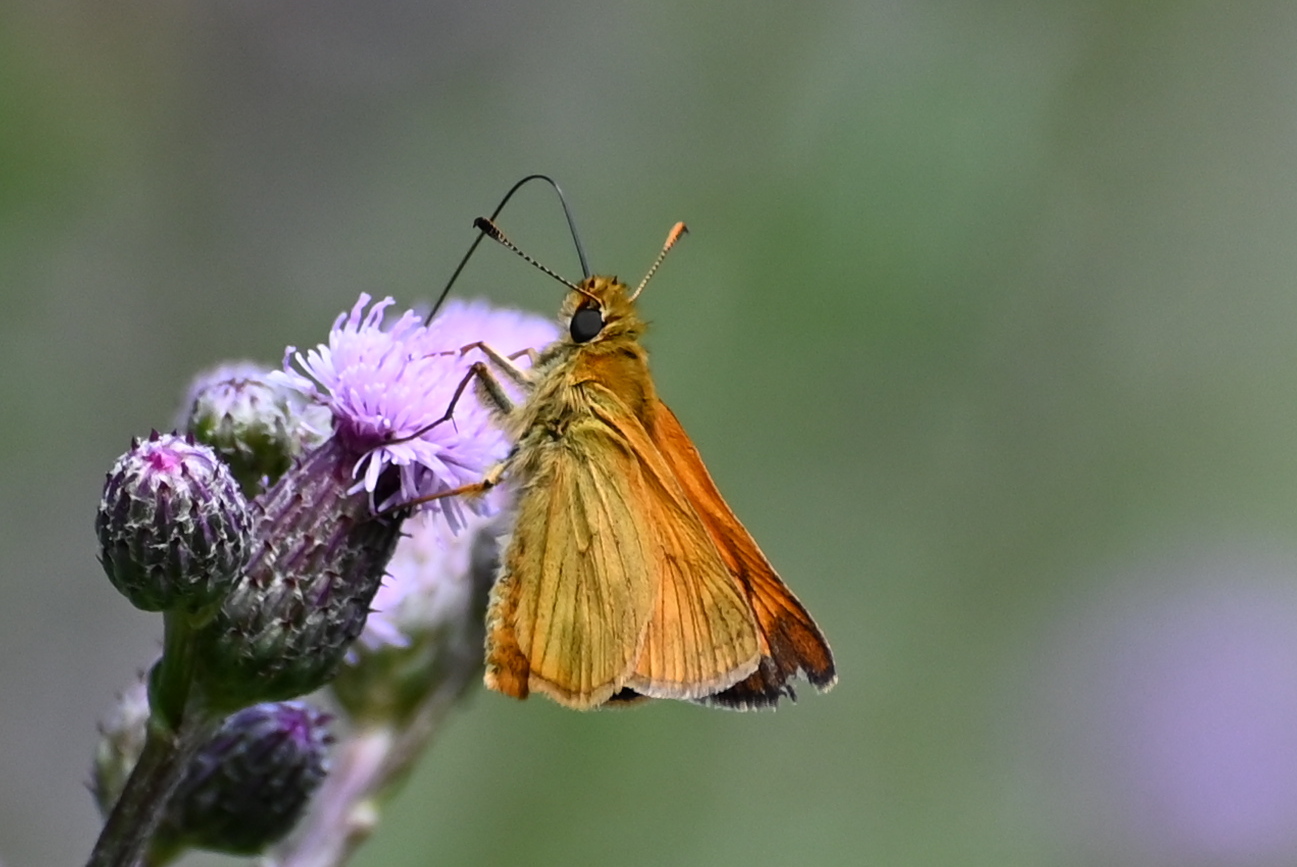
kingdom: Animalia
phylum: Arthropoda
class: Insecta
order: Lepidoptera
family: Hesperiidae
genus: Ochlodes
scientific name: Ochlodes venata
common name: Large skipper
